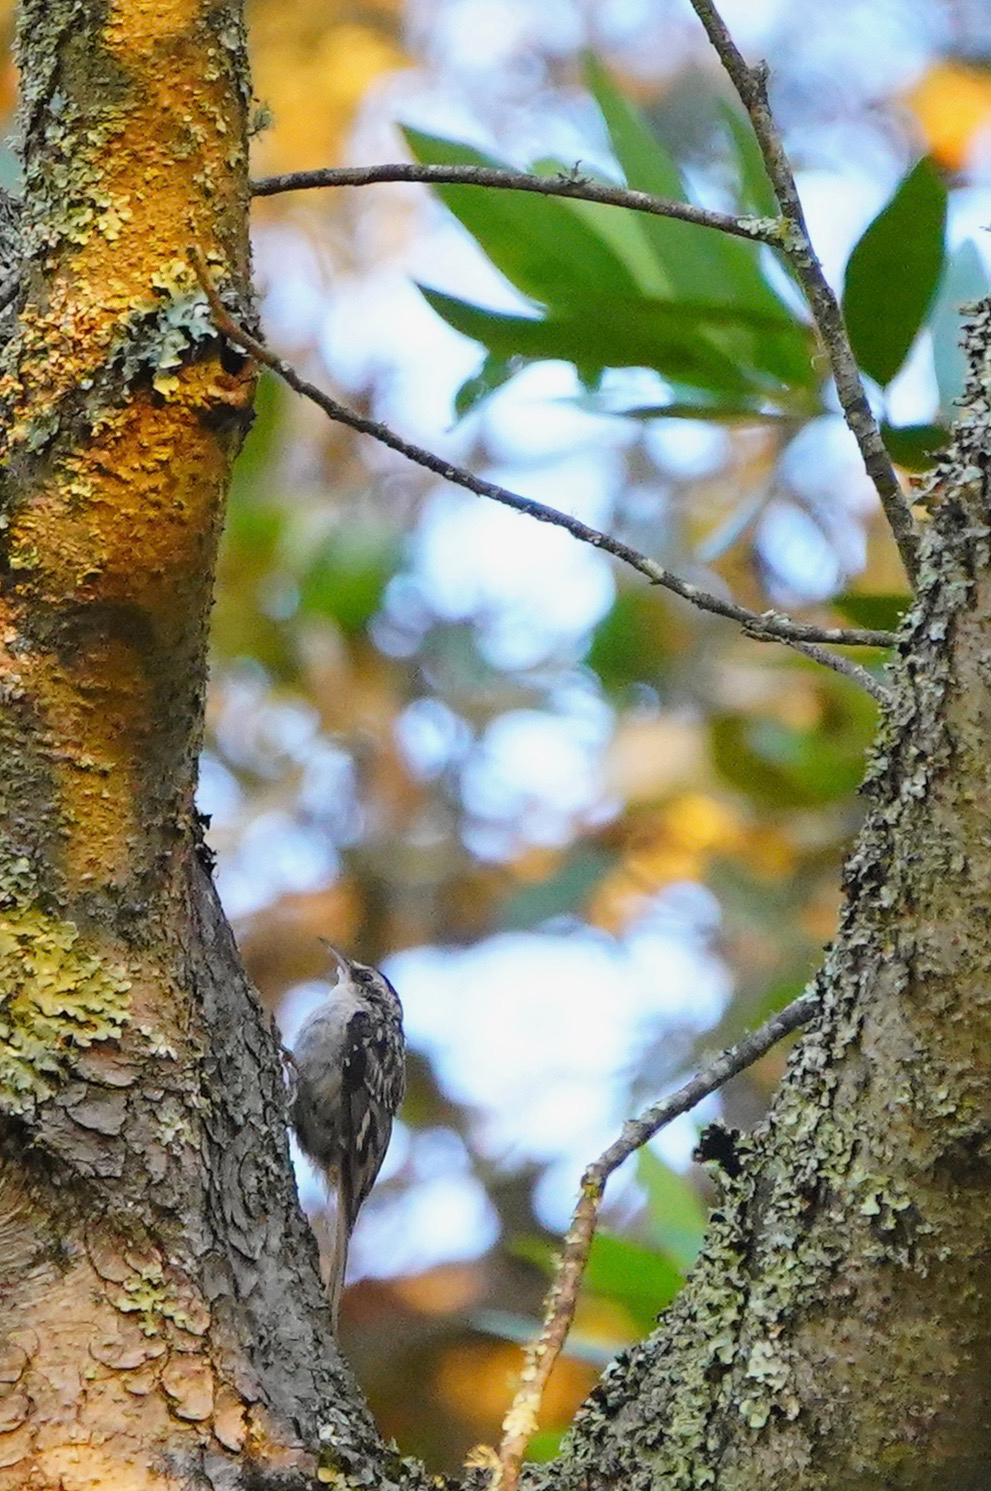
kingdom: Animalia
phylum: Chordata
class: Aves
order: Passeriformes
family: Certhiidae
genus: Certhia
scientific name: Certhia americana
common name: Brown creeper
